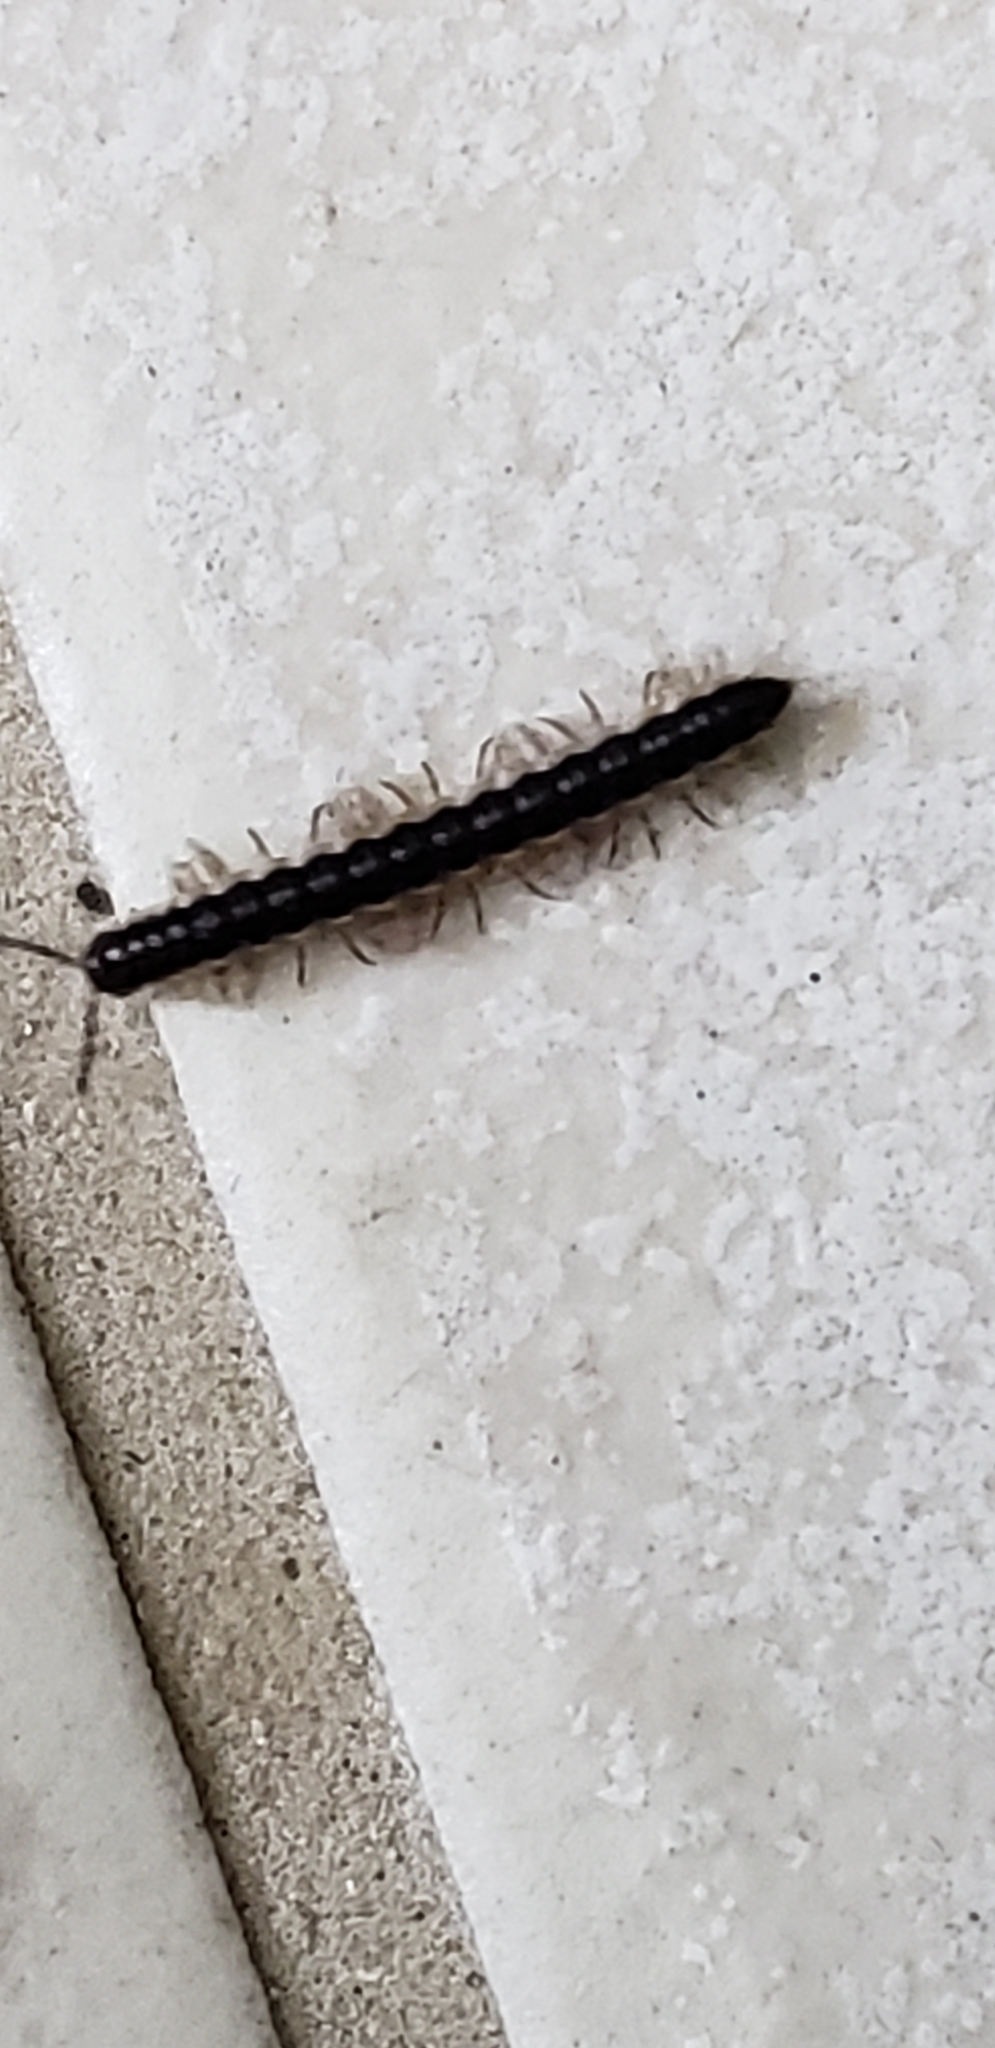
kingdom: Animalia
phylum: Arthropoda
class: Diplopoda
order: Polydesmida
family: Paradoxosomatidae
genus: Orthomorpha
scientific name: Orthomorpha coarctata
